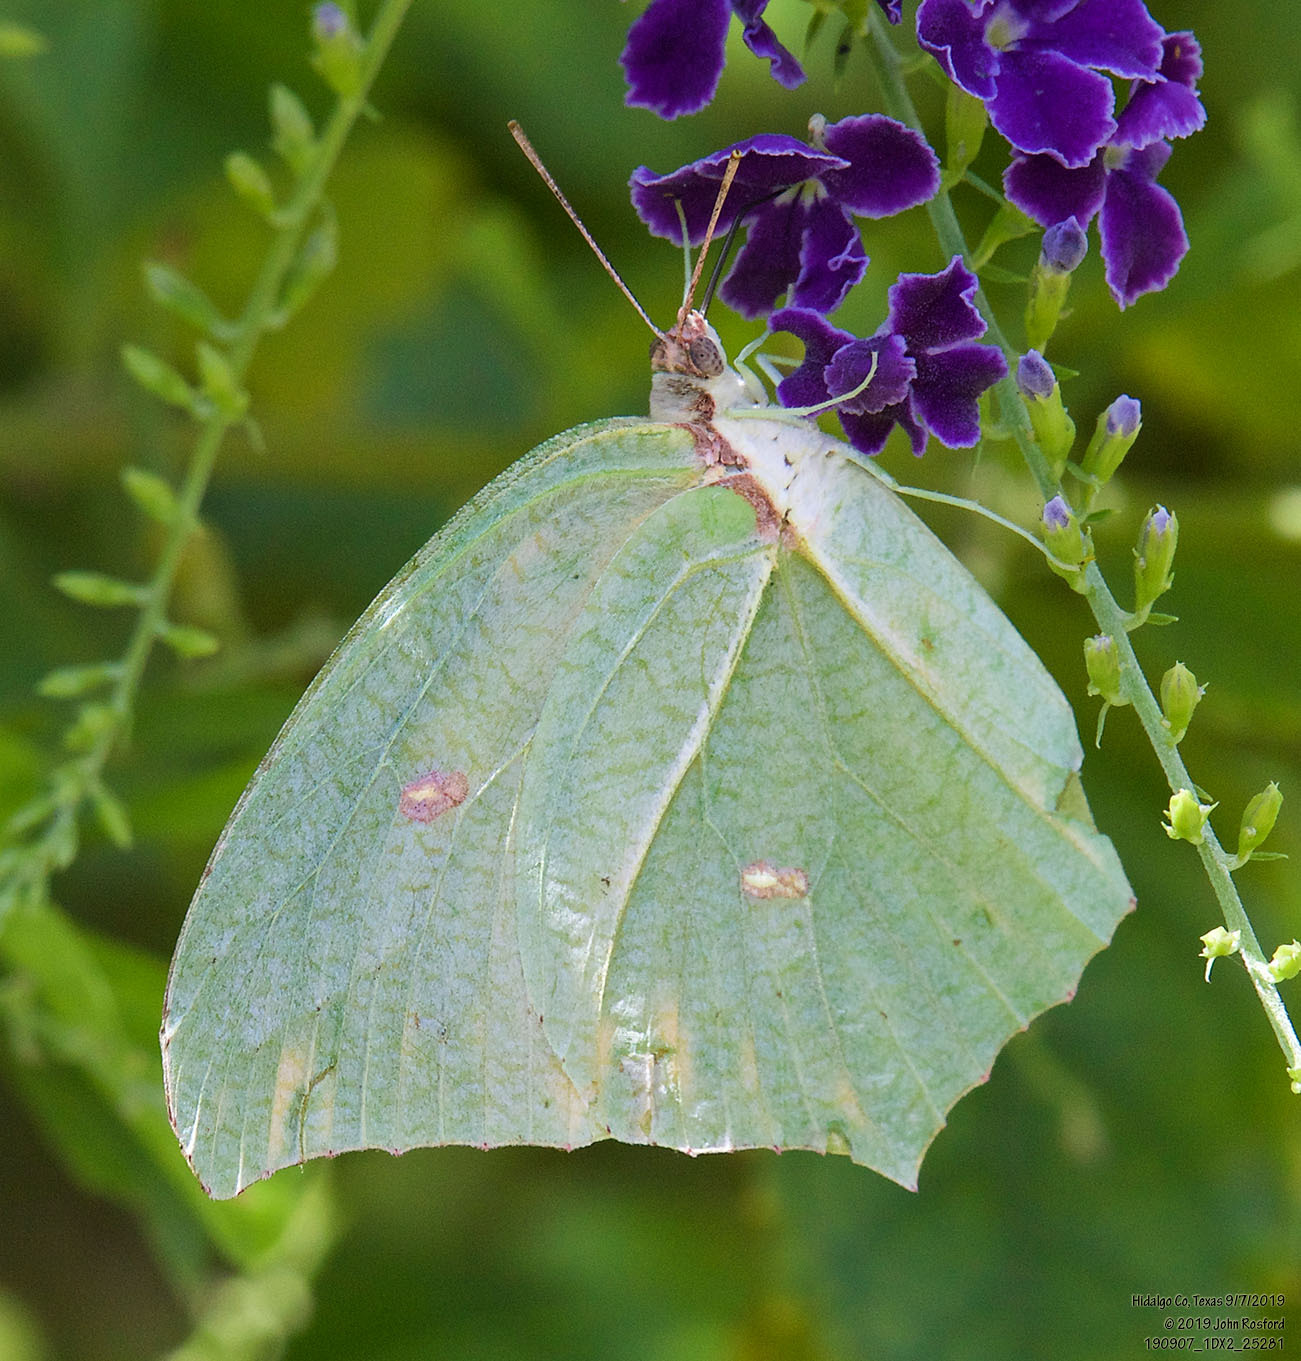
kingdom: Animalia
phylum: Arthropoda
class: Insecta
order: Lepidoptera
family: Pieridae
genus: Anteos
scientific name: Anteos maerula
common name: Angled sulphur
